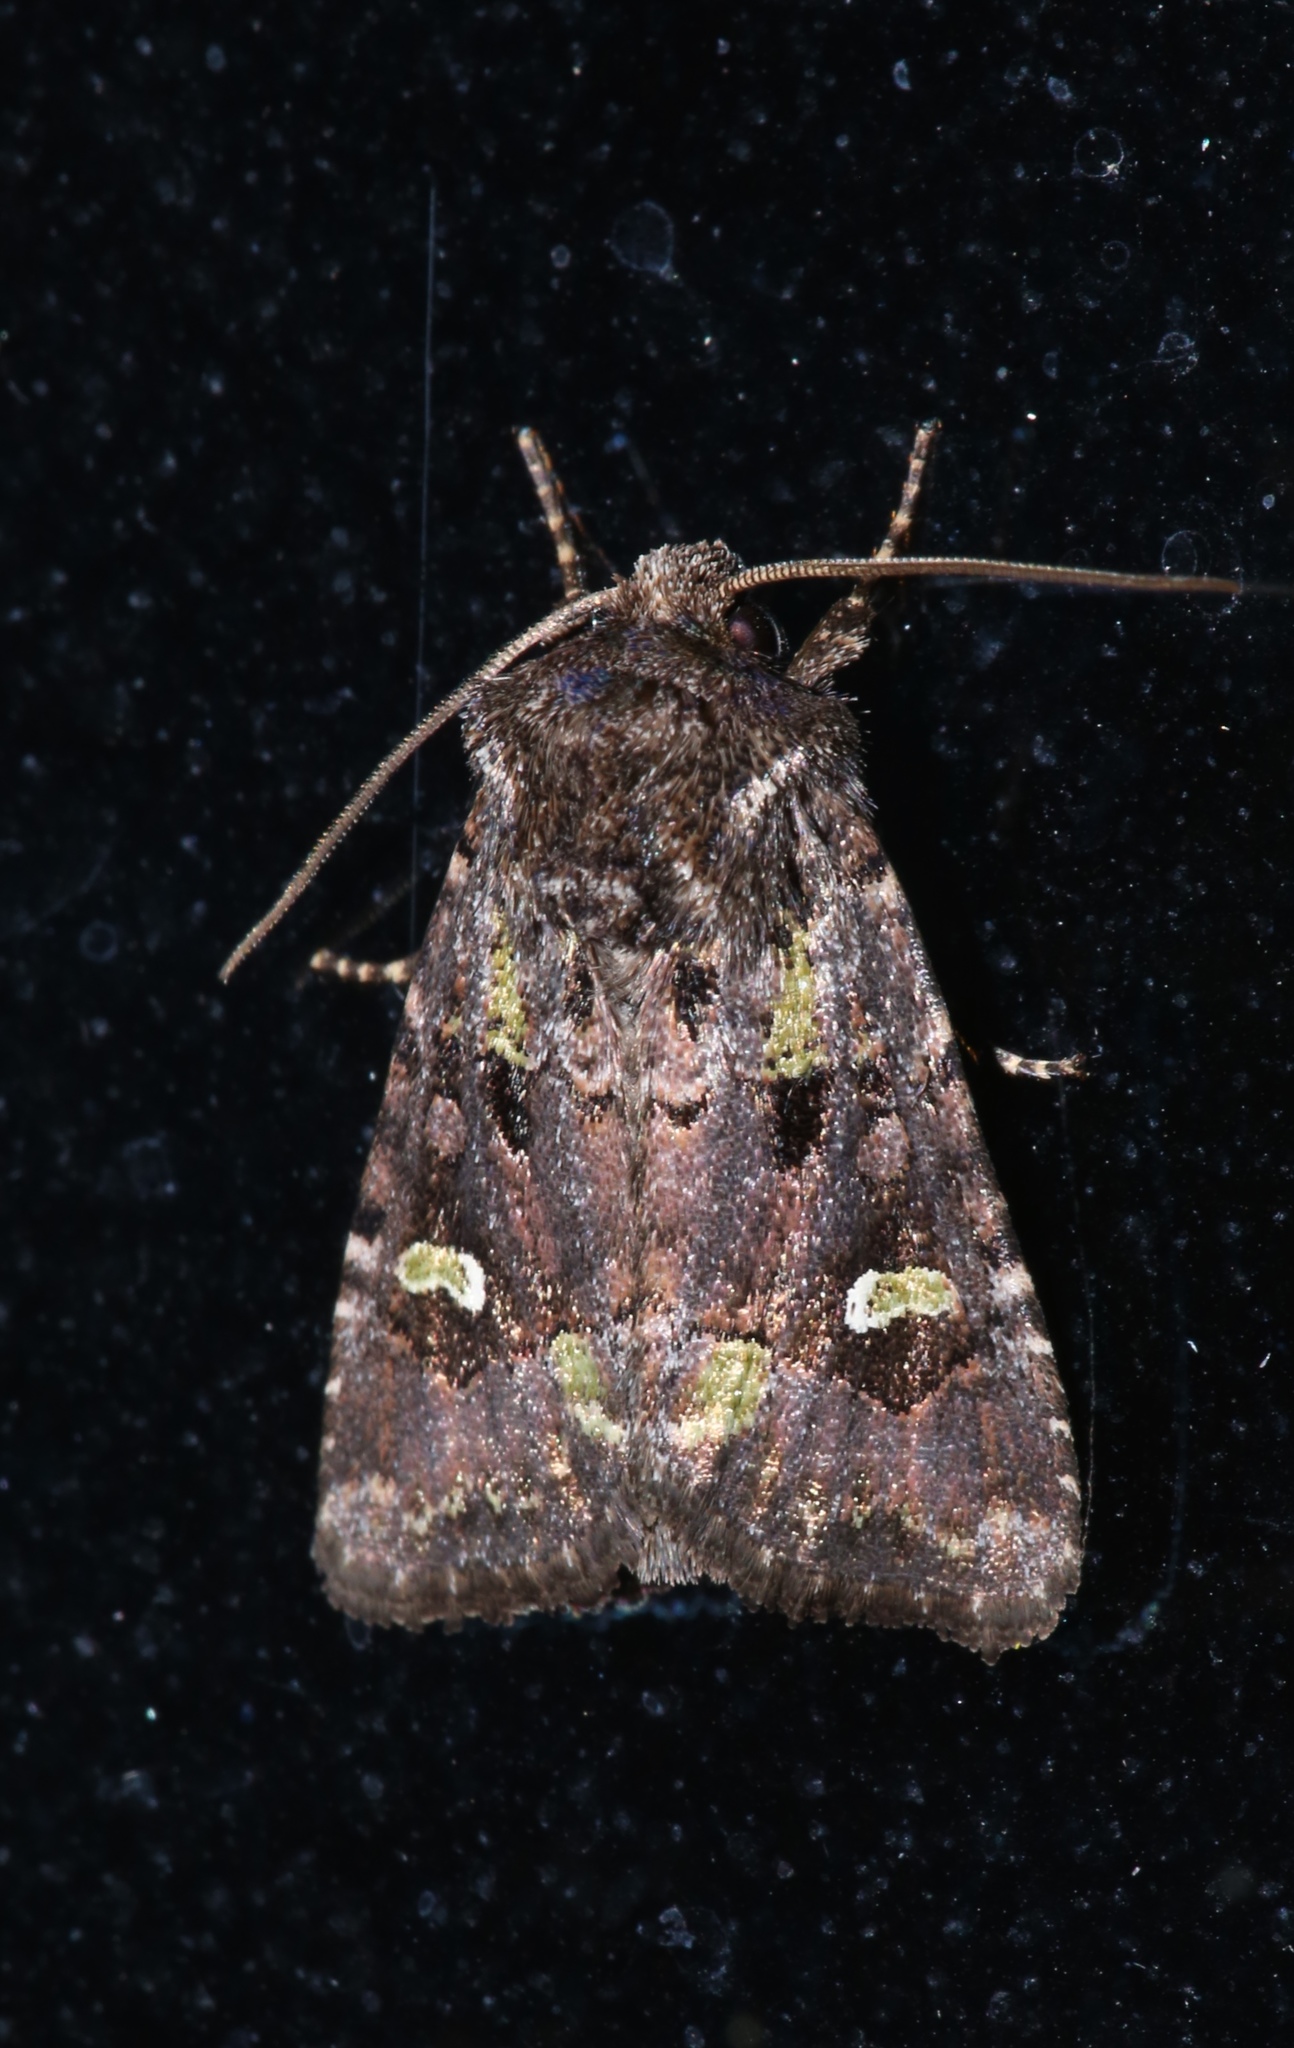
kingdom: Animalia
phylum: Arthropoda
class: Insecta
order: Lepidoptera
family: Noctuidae
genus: Lacinipolia
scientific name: Lacinipolia renigera
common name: Kidney-spotted minor
